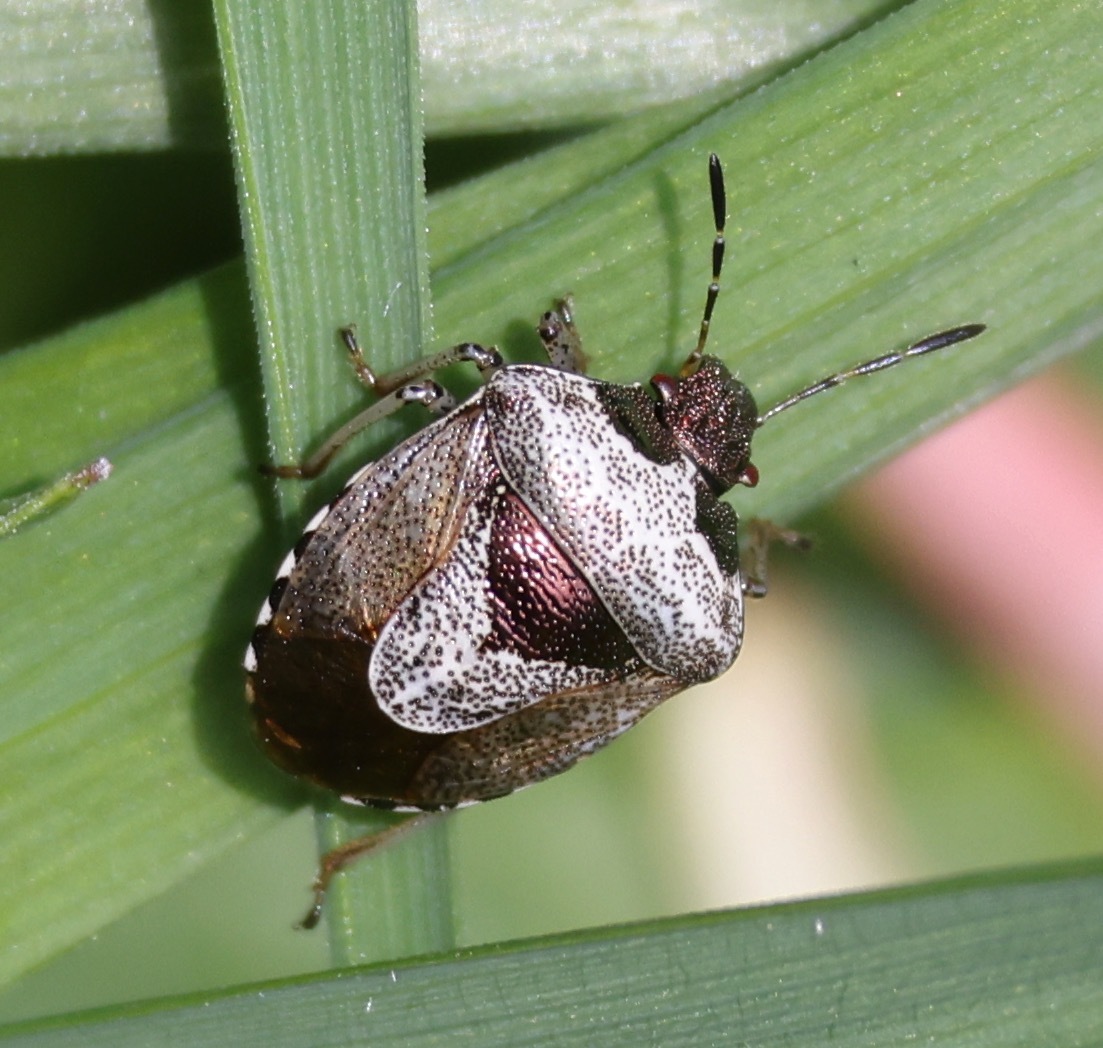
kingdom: Animalia
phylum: Arthropoda
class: Insecta
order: Hemiptera
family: Pentatomidae
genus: Eysarcoris
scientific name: Eysarcoris venustissimus
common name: Woundwort shieldbug
